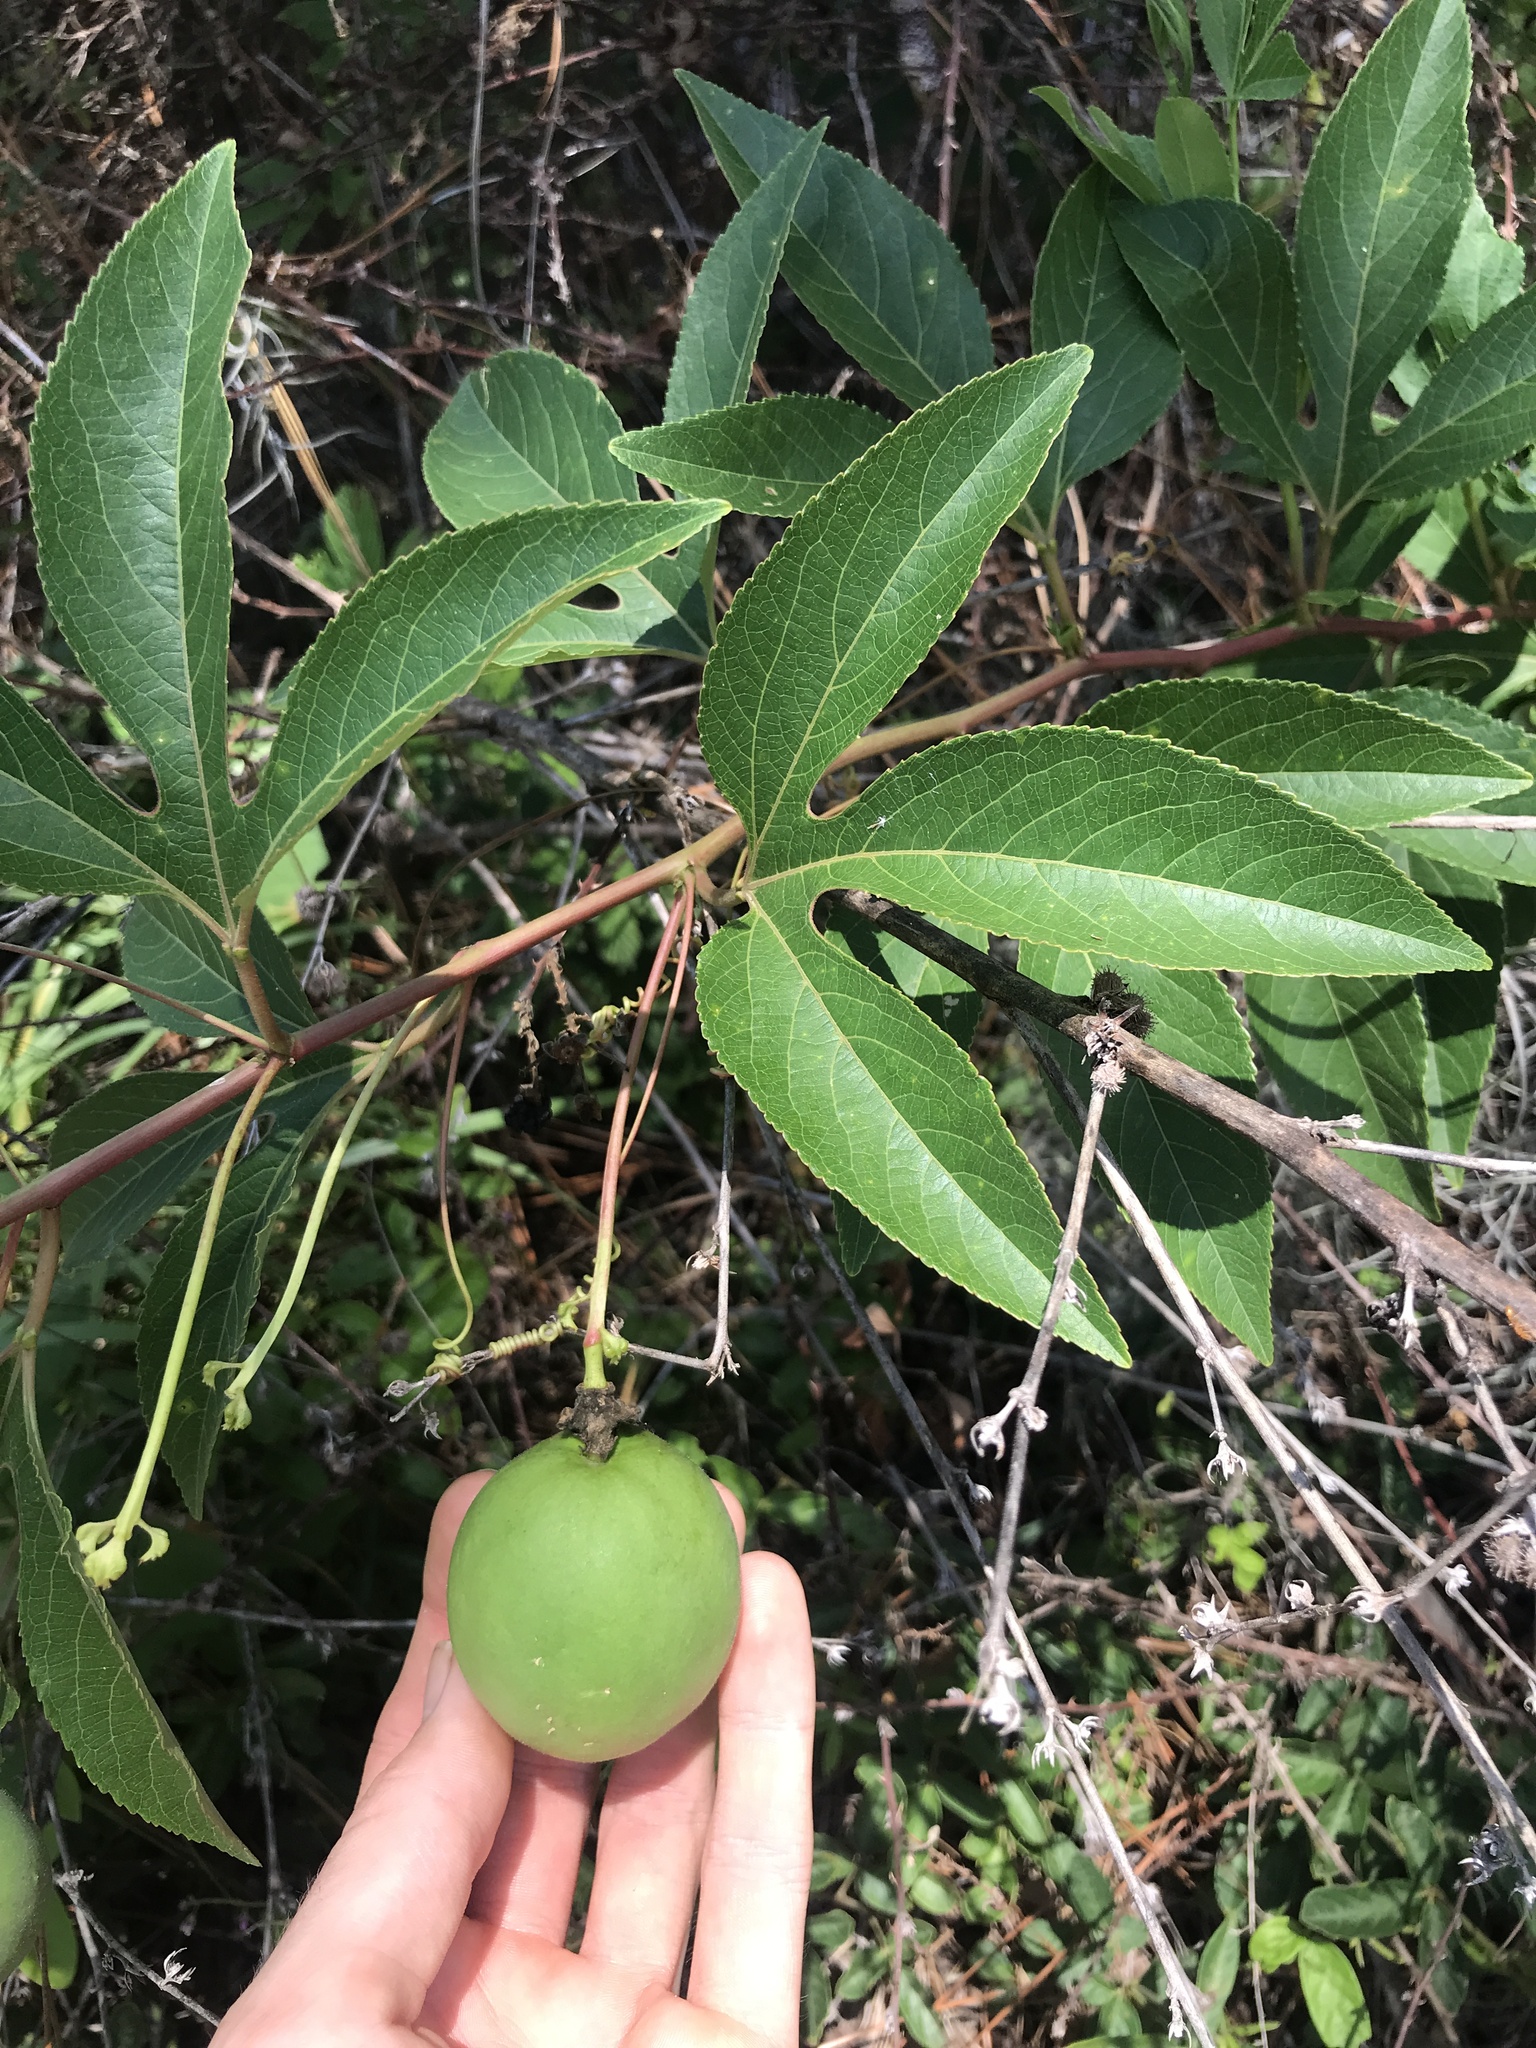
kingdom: Plantae
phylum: Tracheophyta
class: Magnoliopsida
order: Malpighiales
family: Passifloraceae
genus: Passiflora
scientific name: Passiflora incarnata
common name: Apricot-vine
